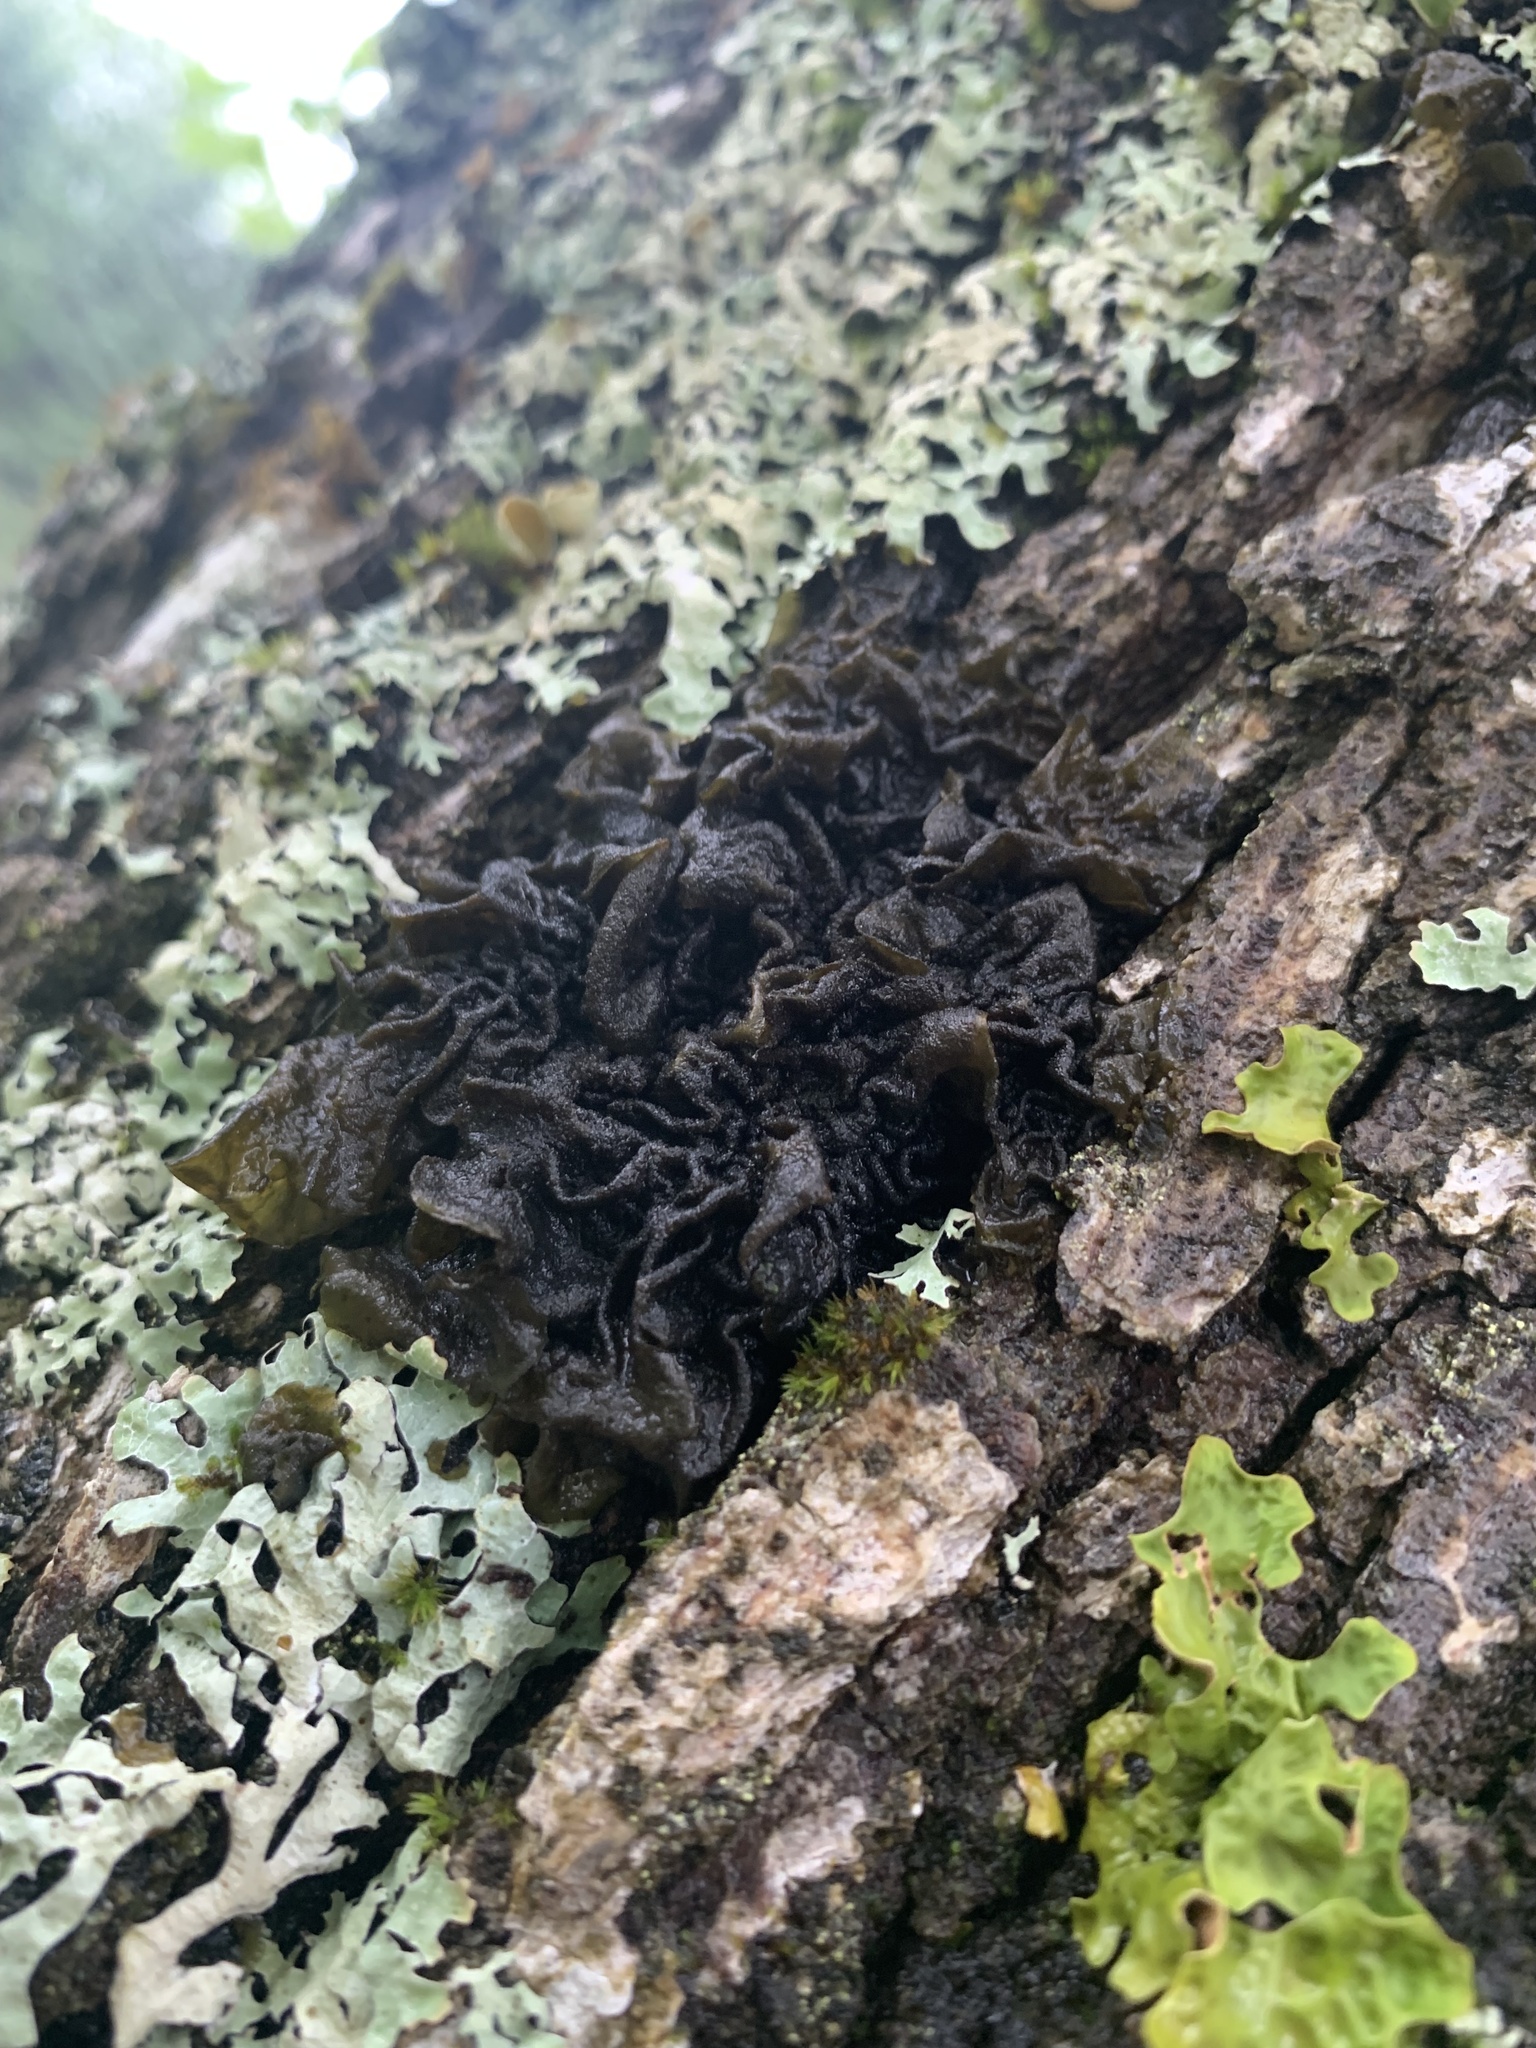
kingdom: Fungi
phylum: Ascomycota
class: Lecanoromycetes
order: Peltigerales
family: Collemataceae
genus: Collema
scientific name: Collema subflaccidum
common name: Tree jelly
